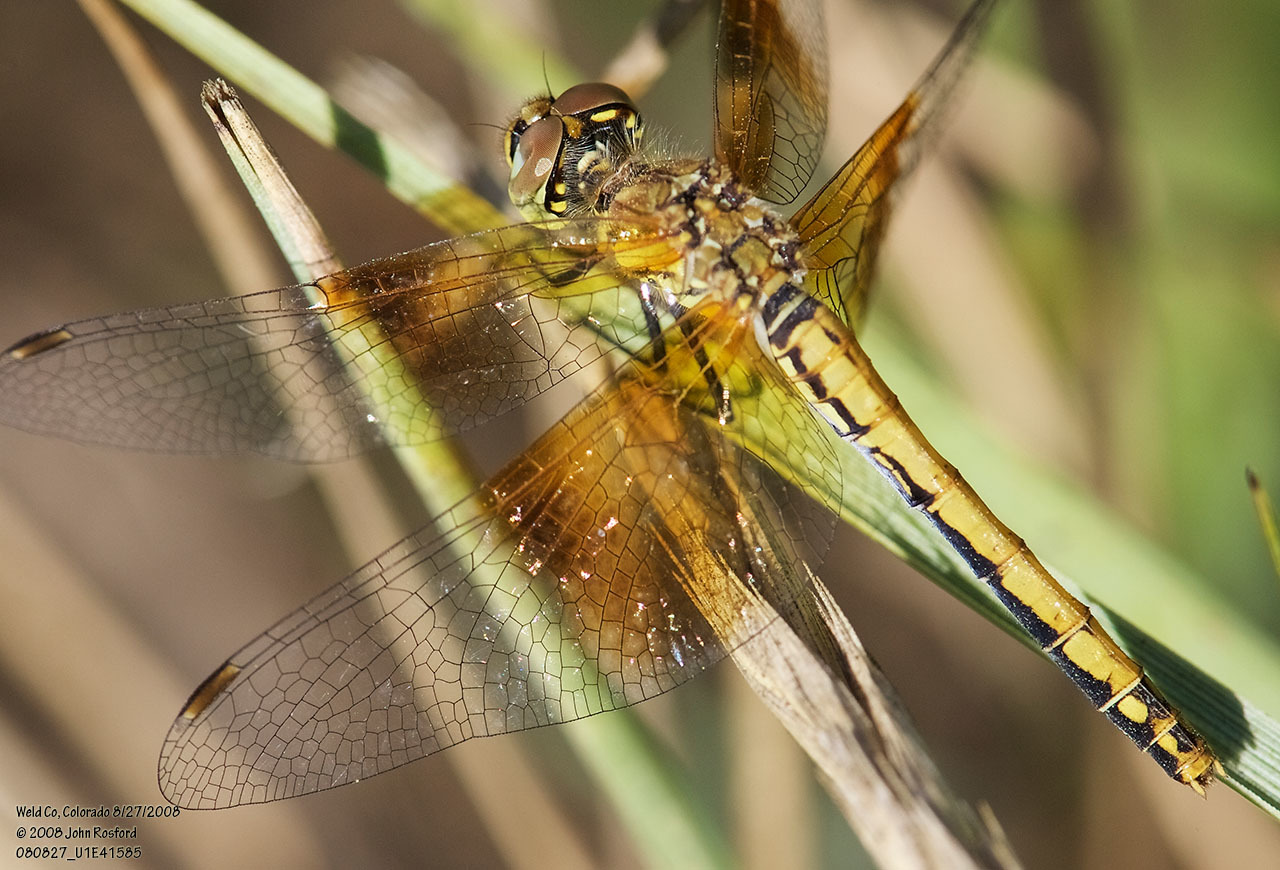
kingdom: Animalia
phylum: Arthropoda
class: Insecta
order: Odonata
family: Libellulidae
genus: Sympetrum
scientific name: Sympetrum semicinctum
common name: Band-winged meadowhawk
